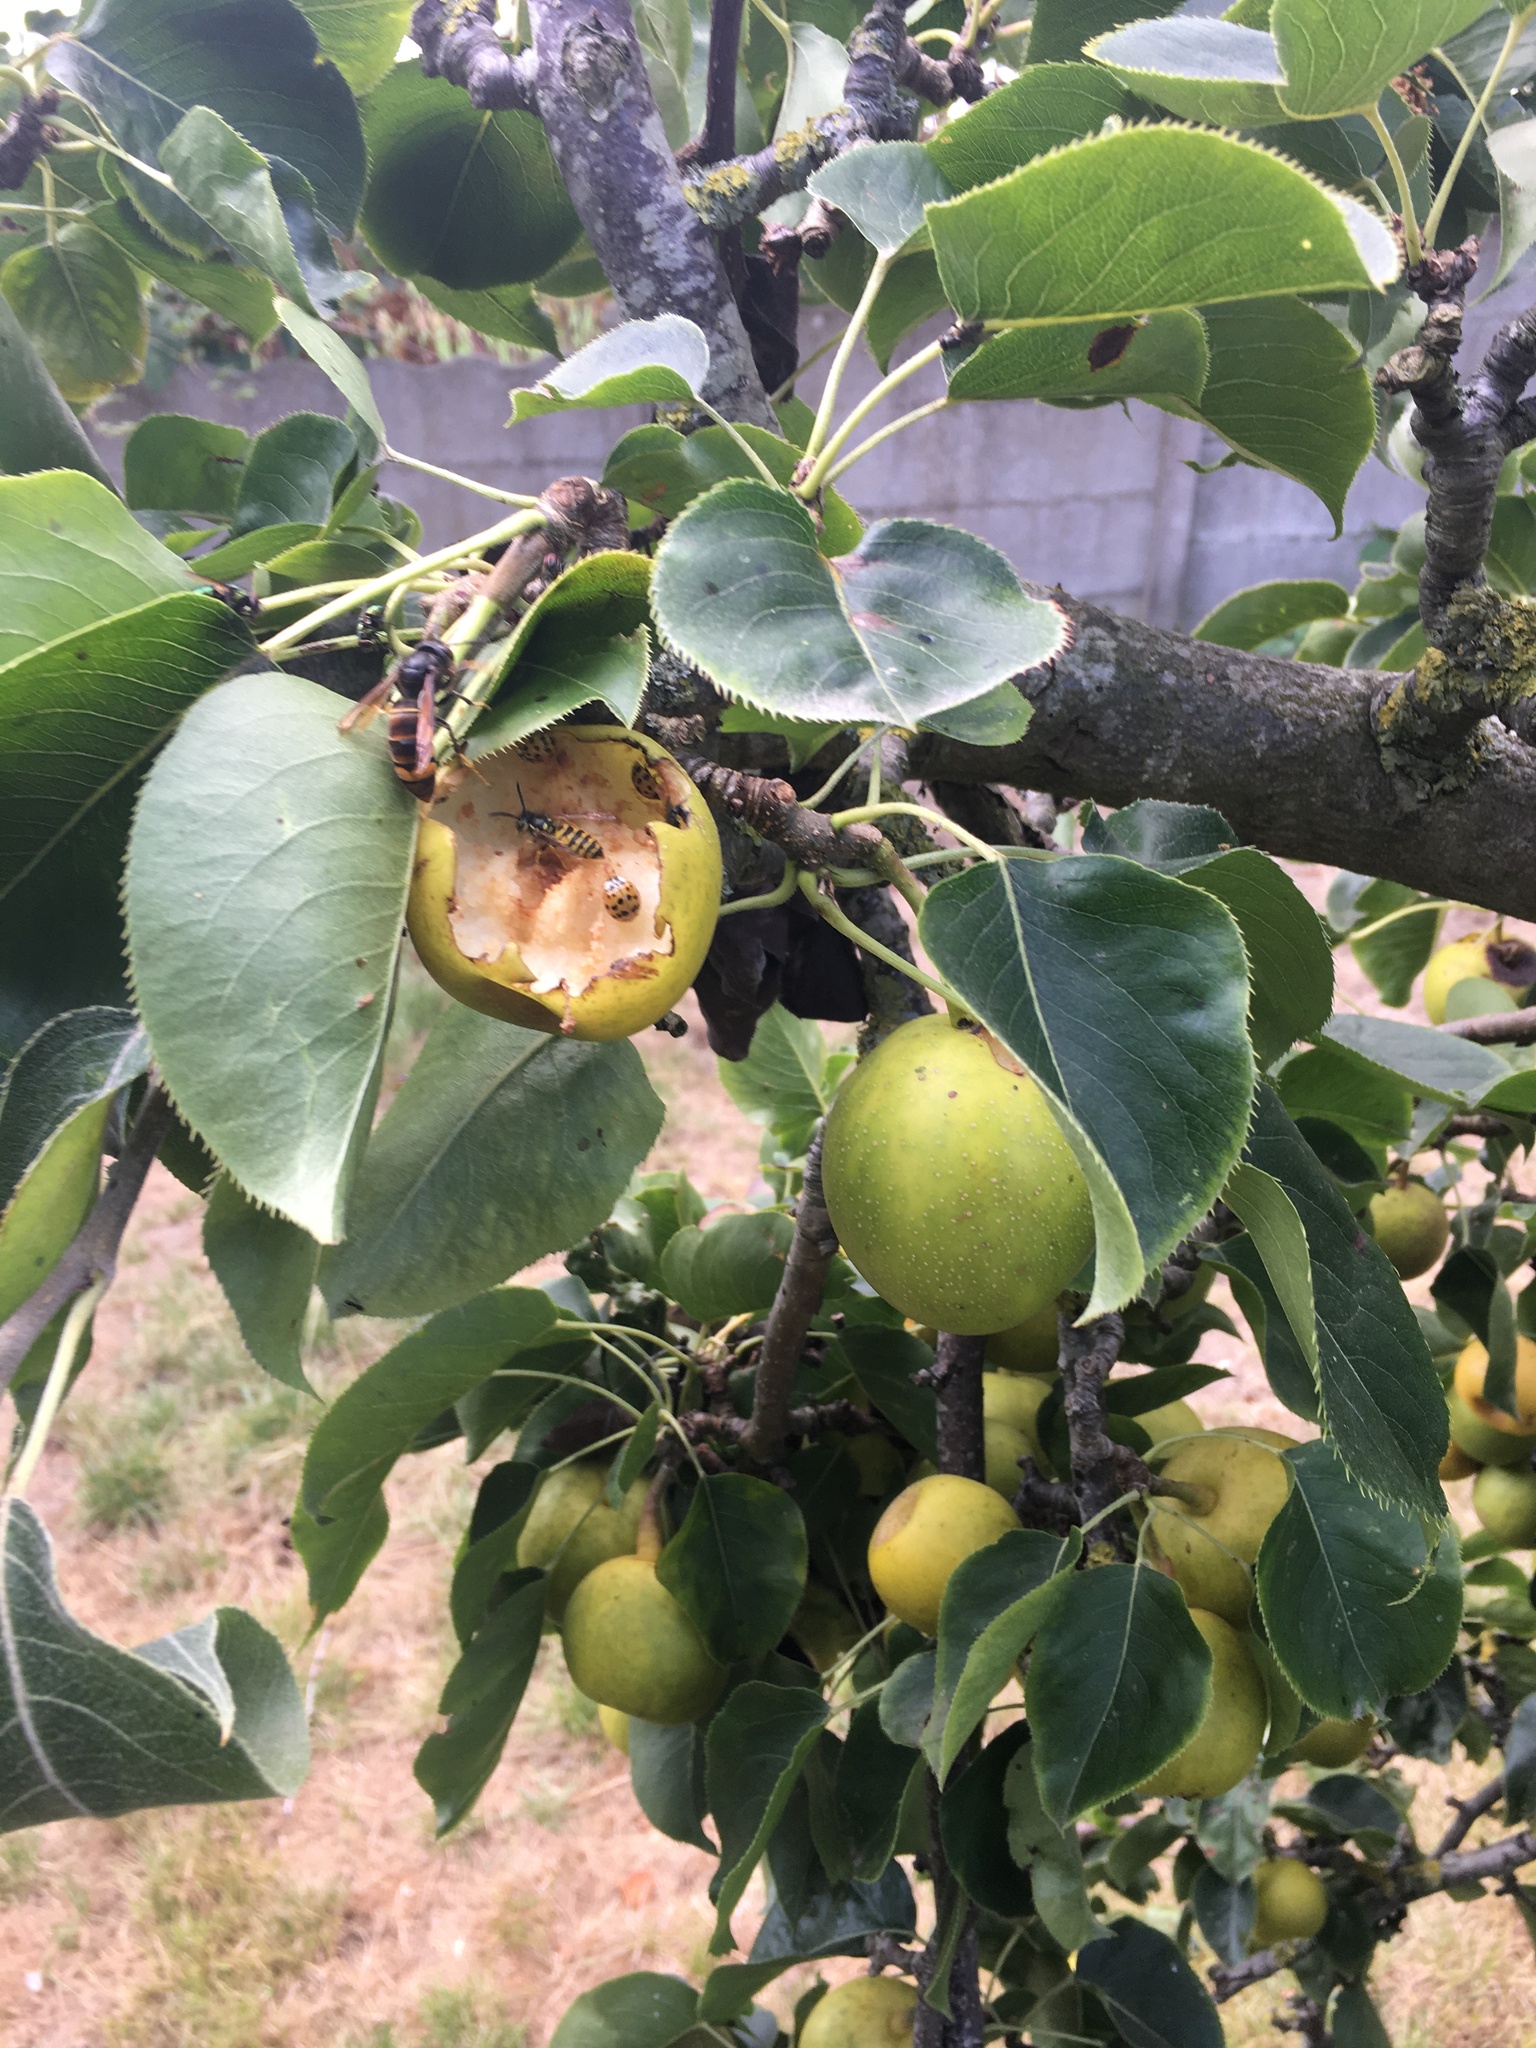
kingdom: Animalia
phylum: Arthropoda
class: Insecta
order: Hymenoptera
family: Vespidae
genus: Vespa
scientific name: Vespa velutina
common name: Asian hornet
